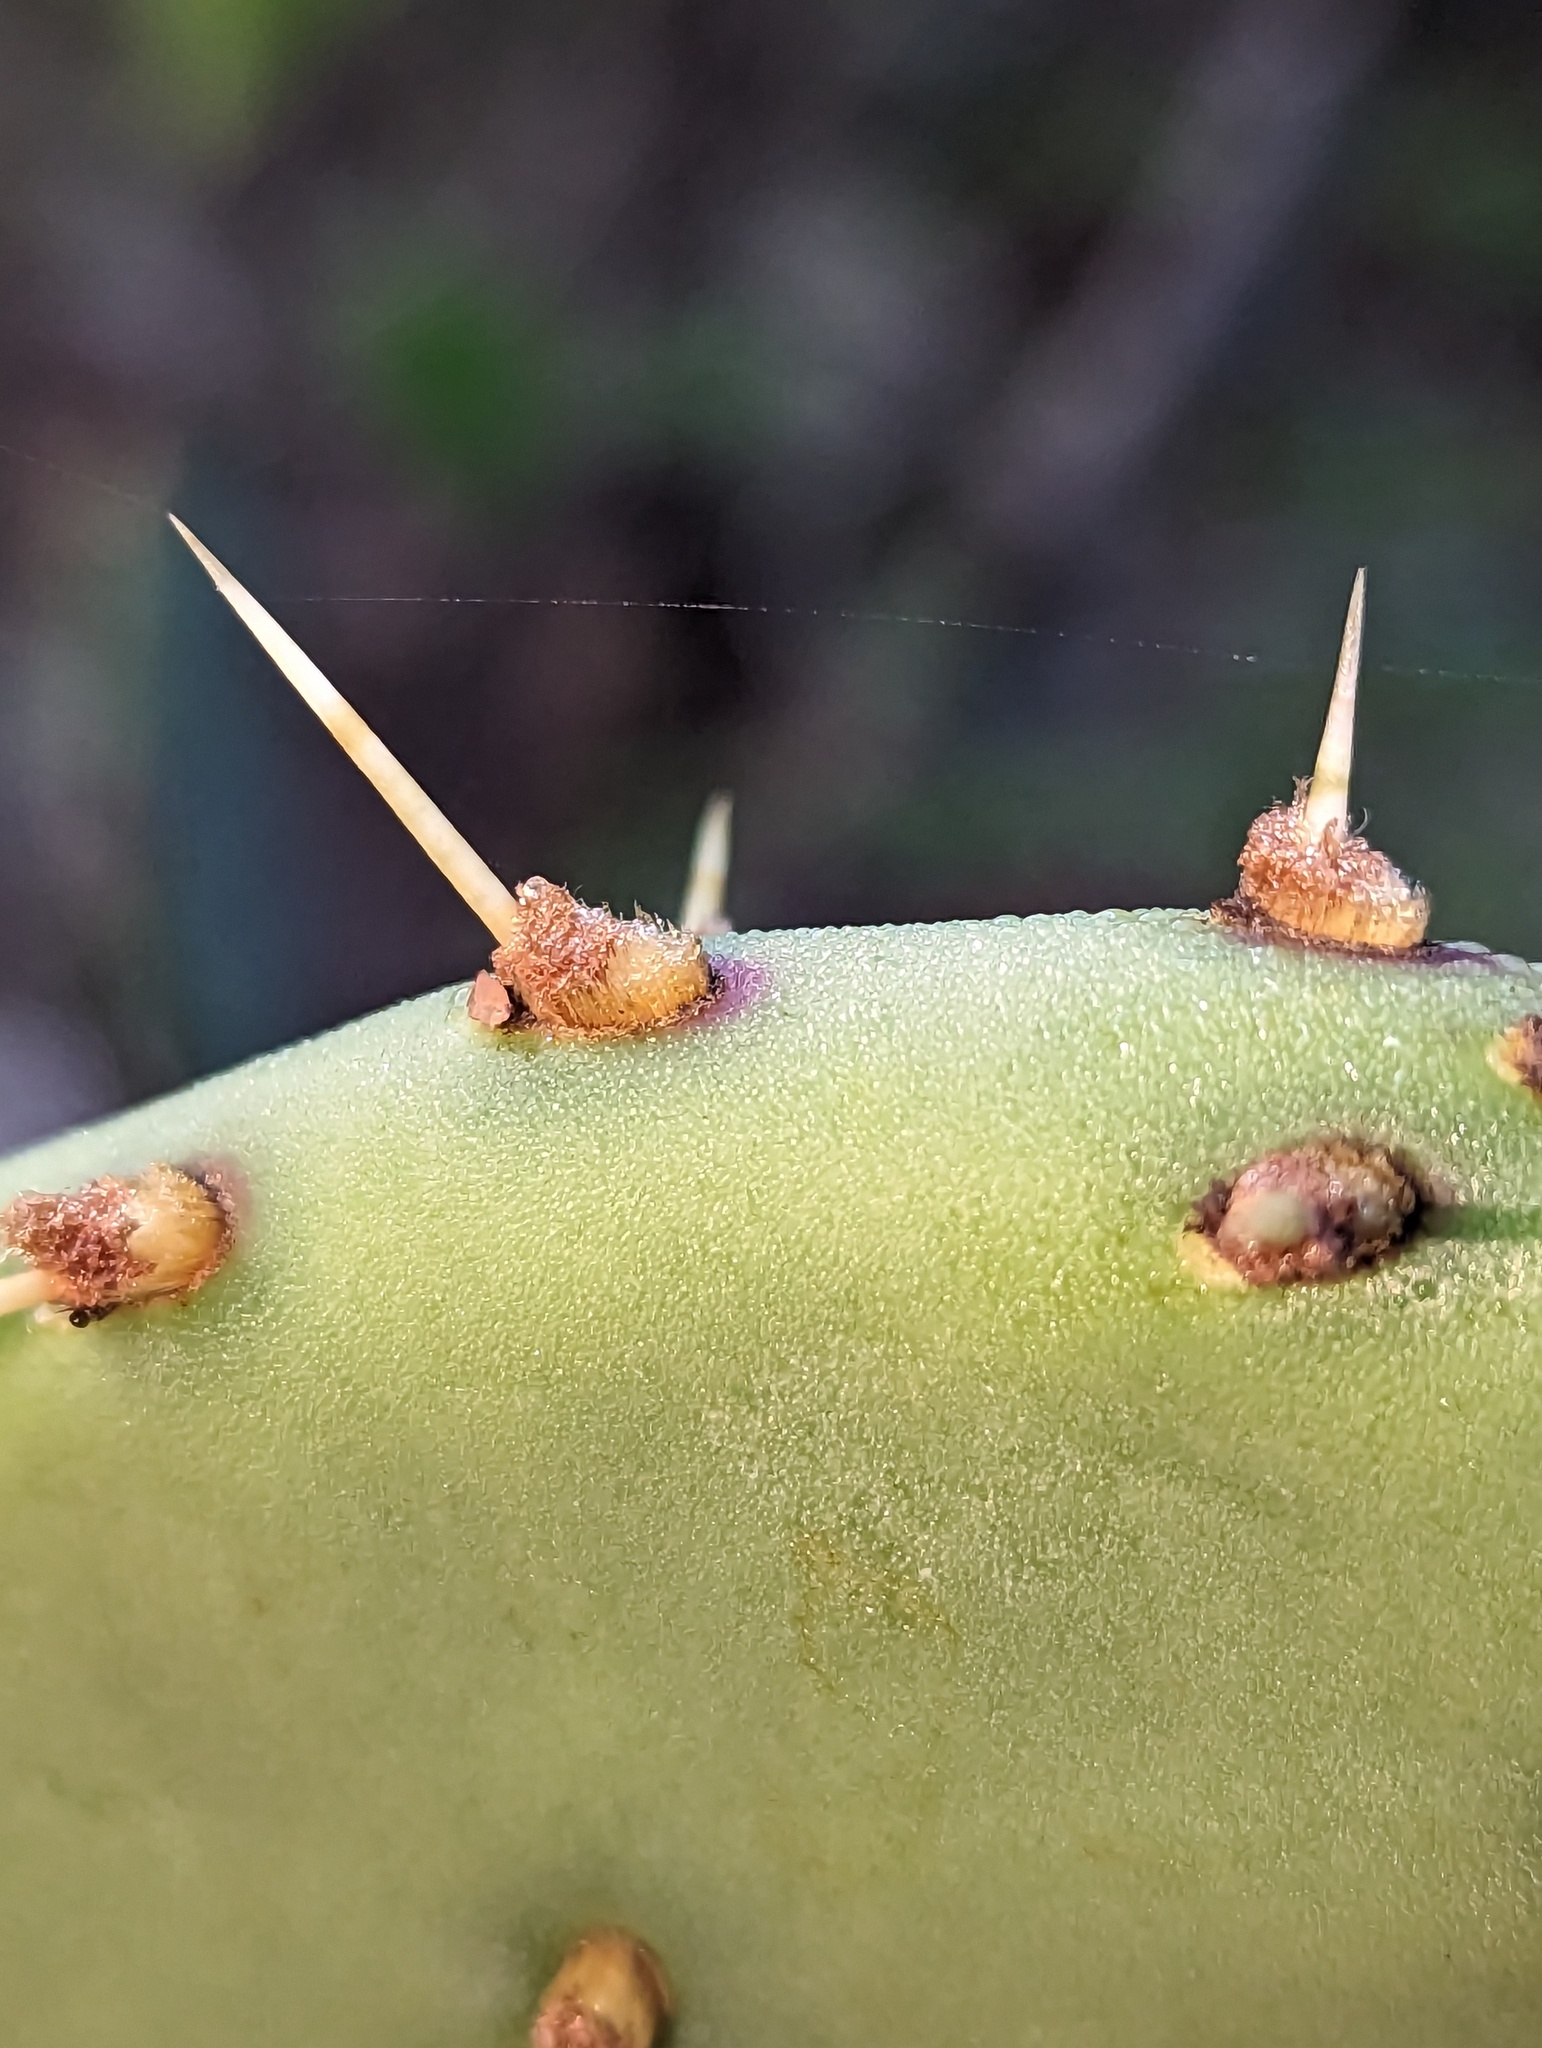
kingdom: Plantae
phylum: Tracheophyta
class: Magnoliopsida
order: Caryophyllales
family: Cactaceae
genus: Opuntia
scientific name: Opuntia caboensis
